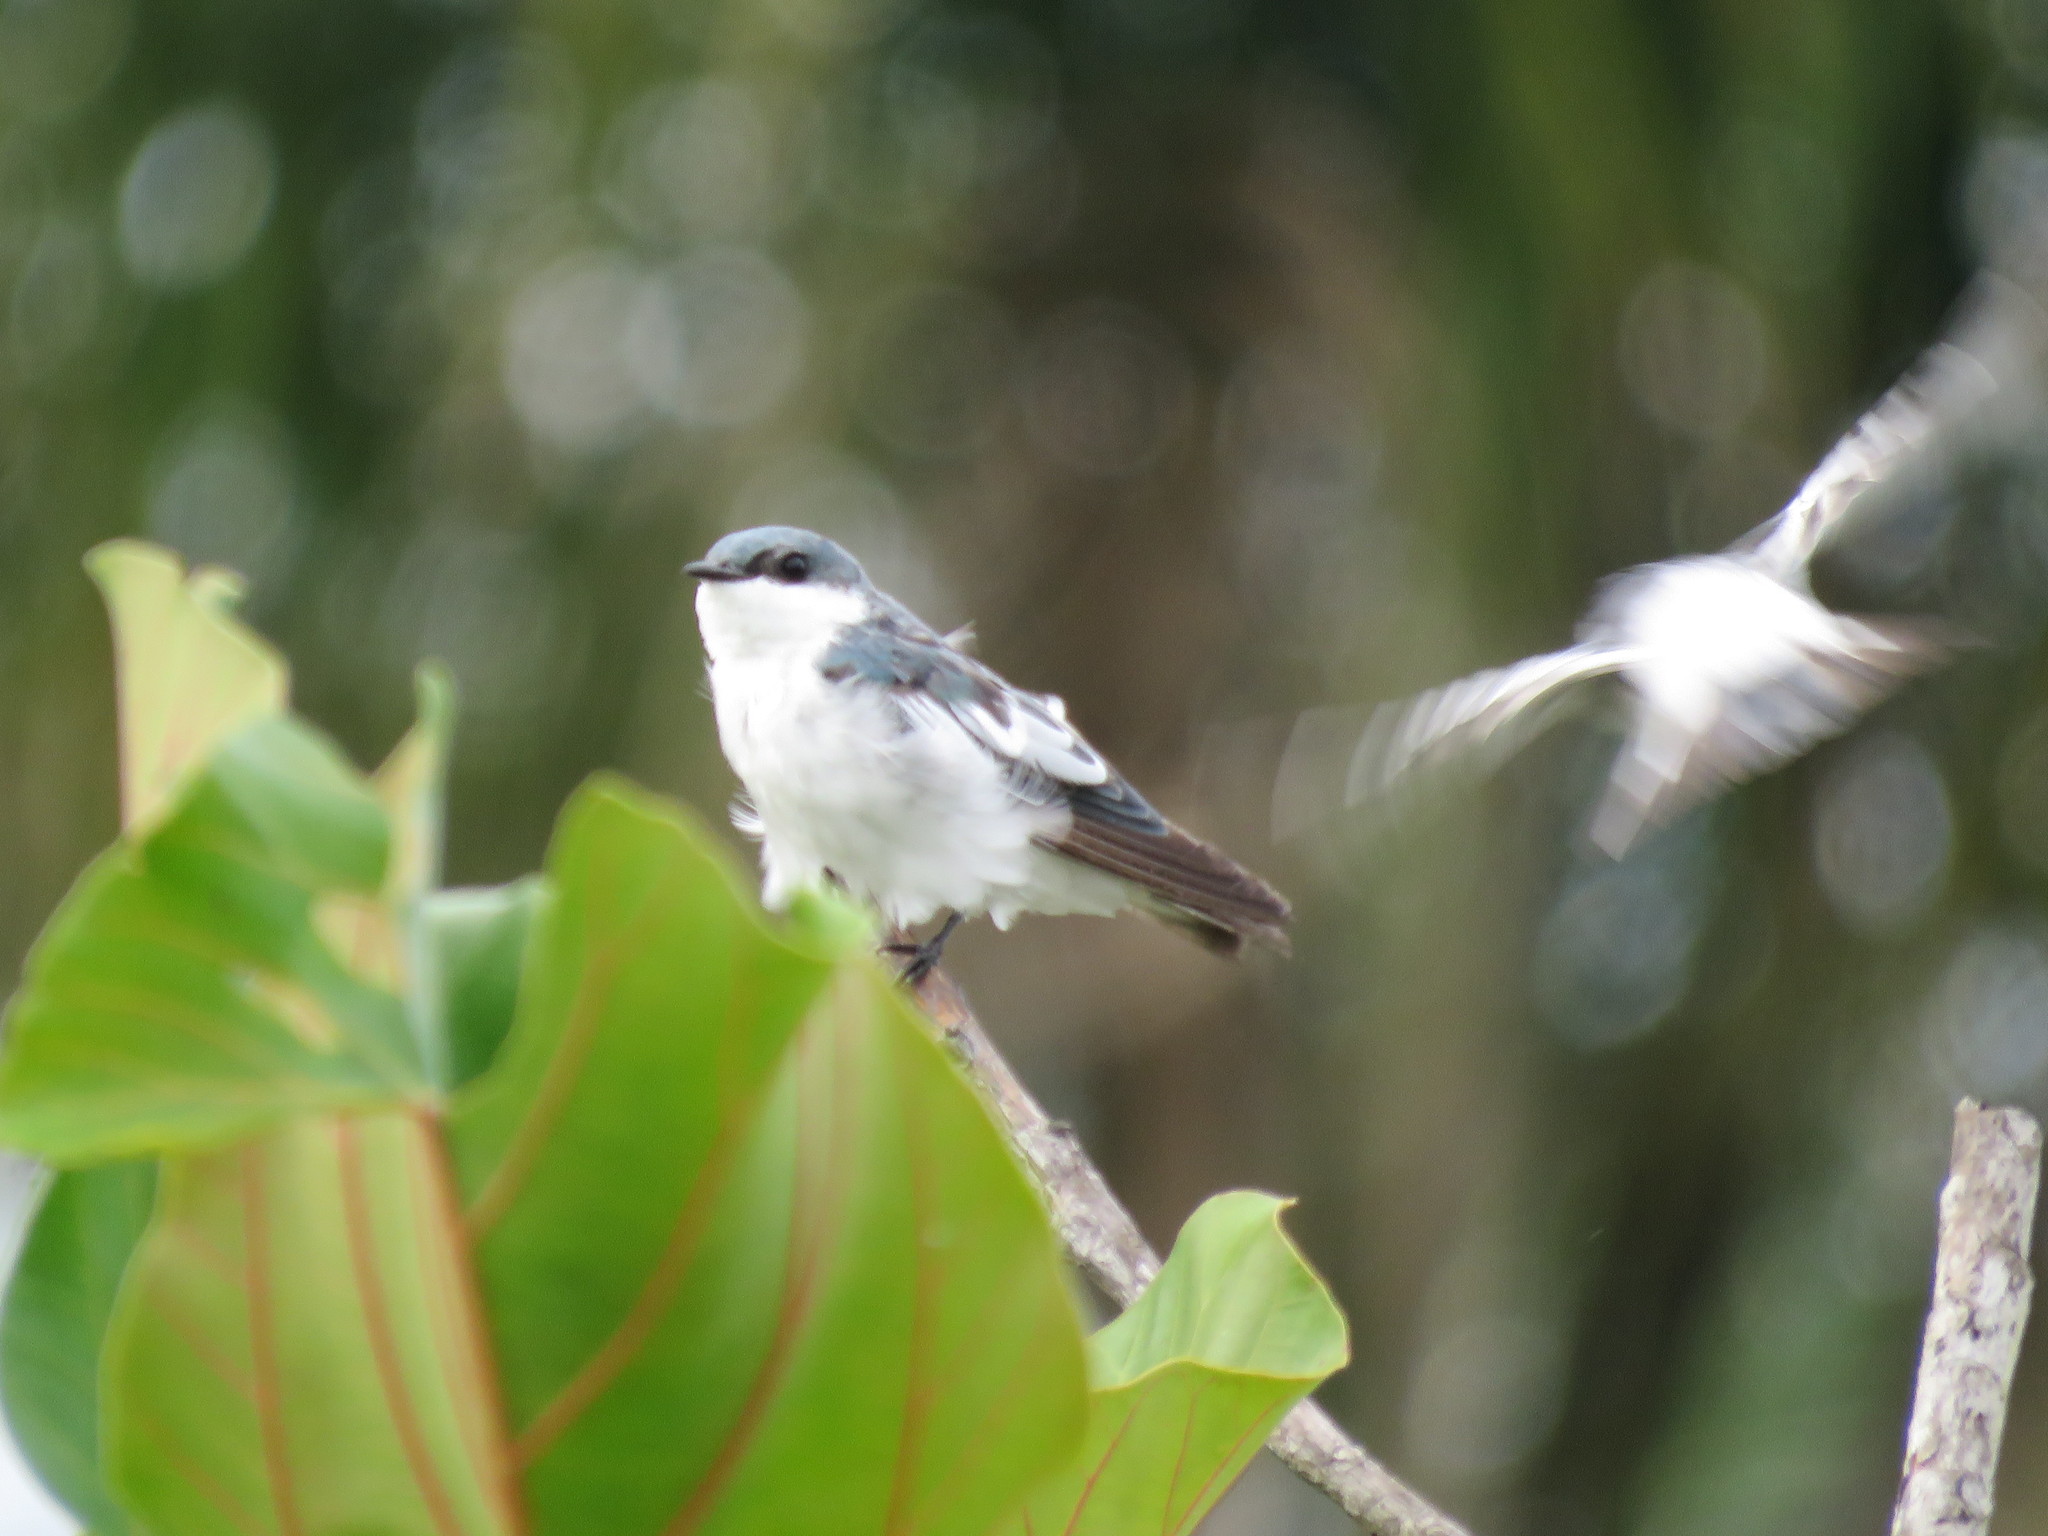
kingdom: Animalia
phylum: Chordata
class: Aves
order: Passeriformes
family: Hirundinidae
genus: Tachycineta
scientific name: Tachycineta albiventer
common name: White-winged swallow
